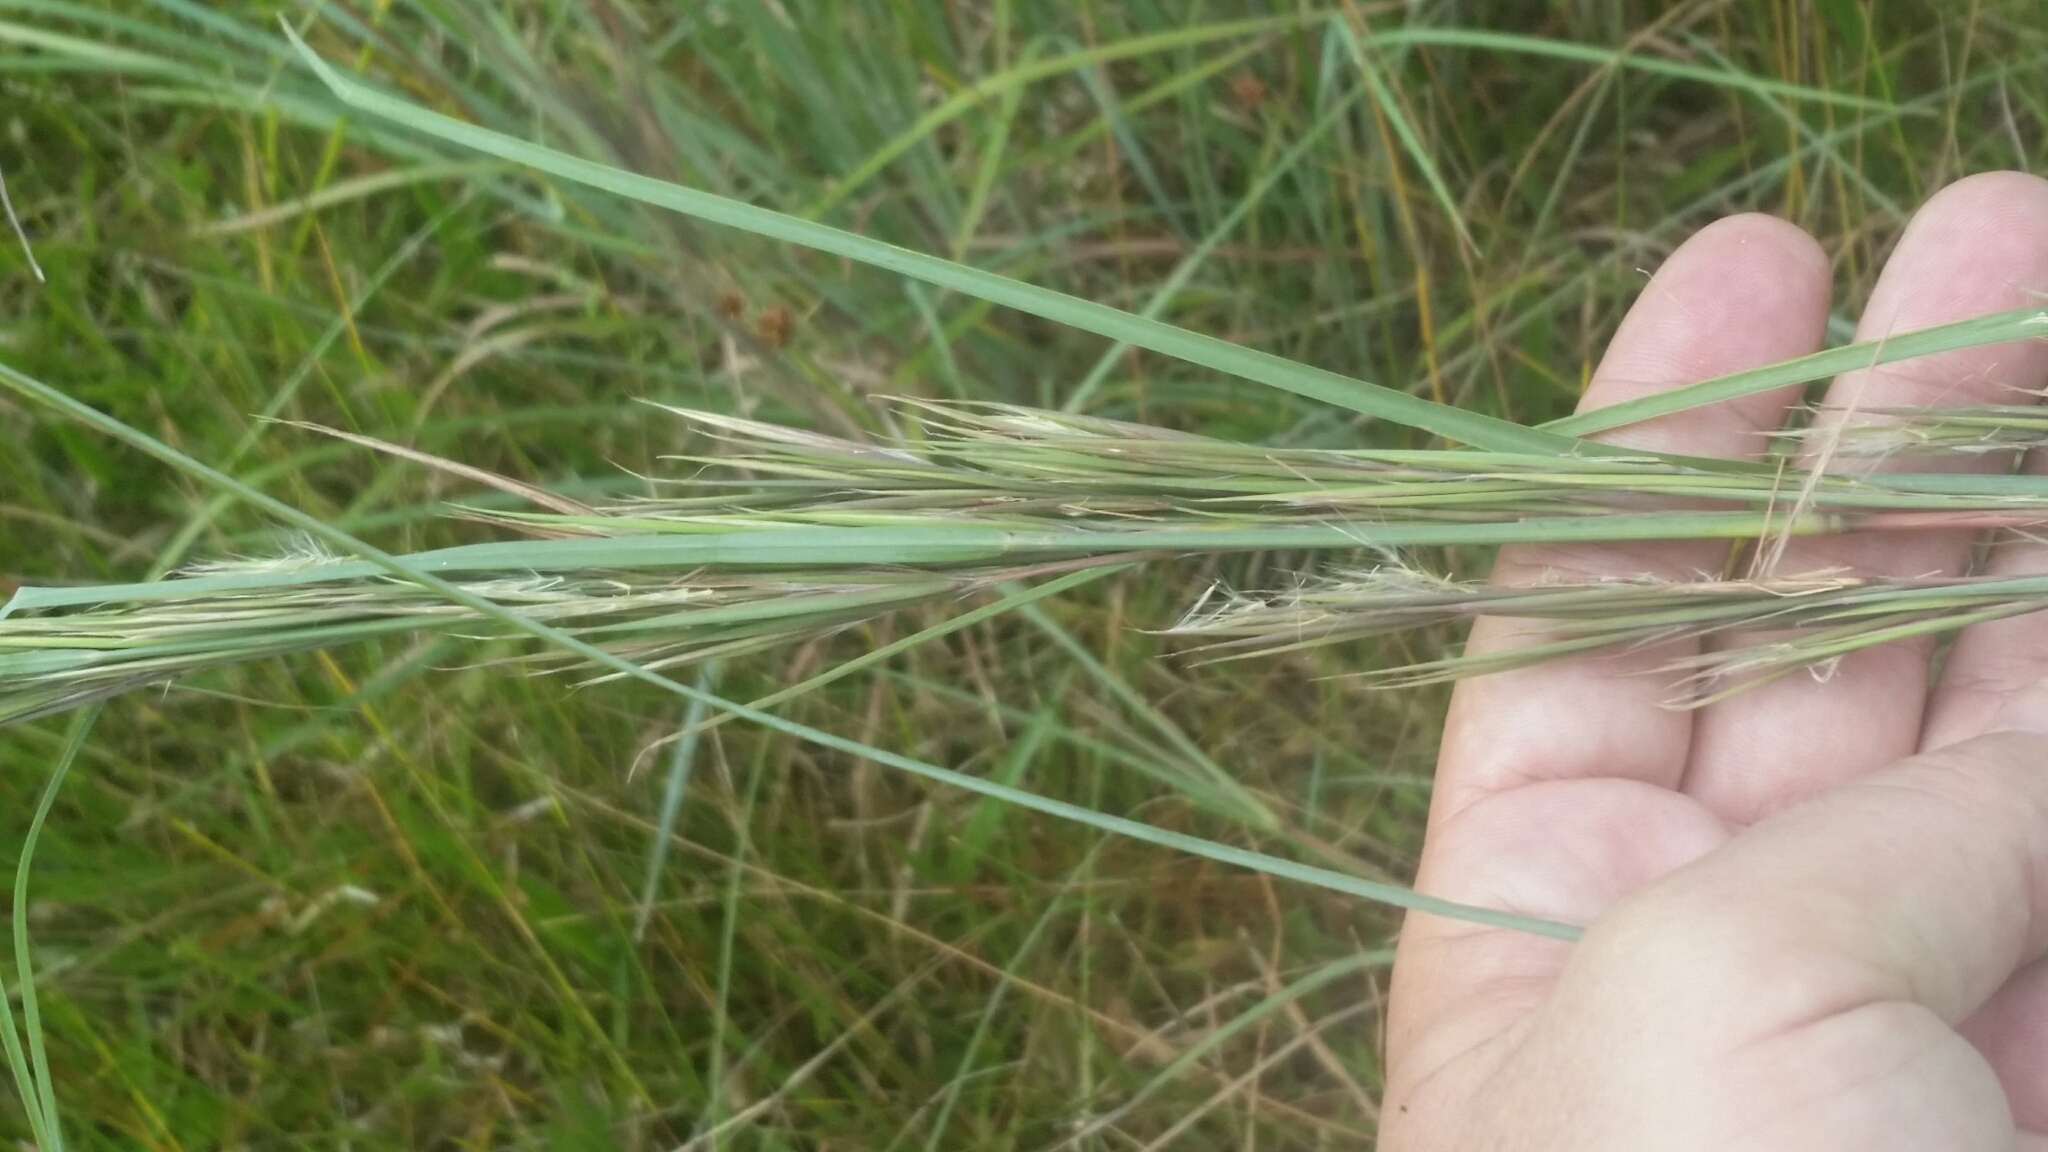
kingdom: Plantae
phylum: Tracheophyta
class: Liliopsida
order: Poales
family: Poaceae
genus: Andropogon
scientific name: Andropogon cretaceus
